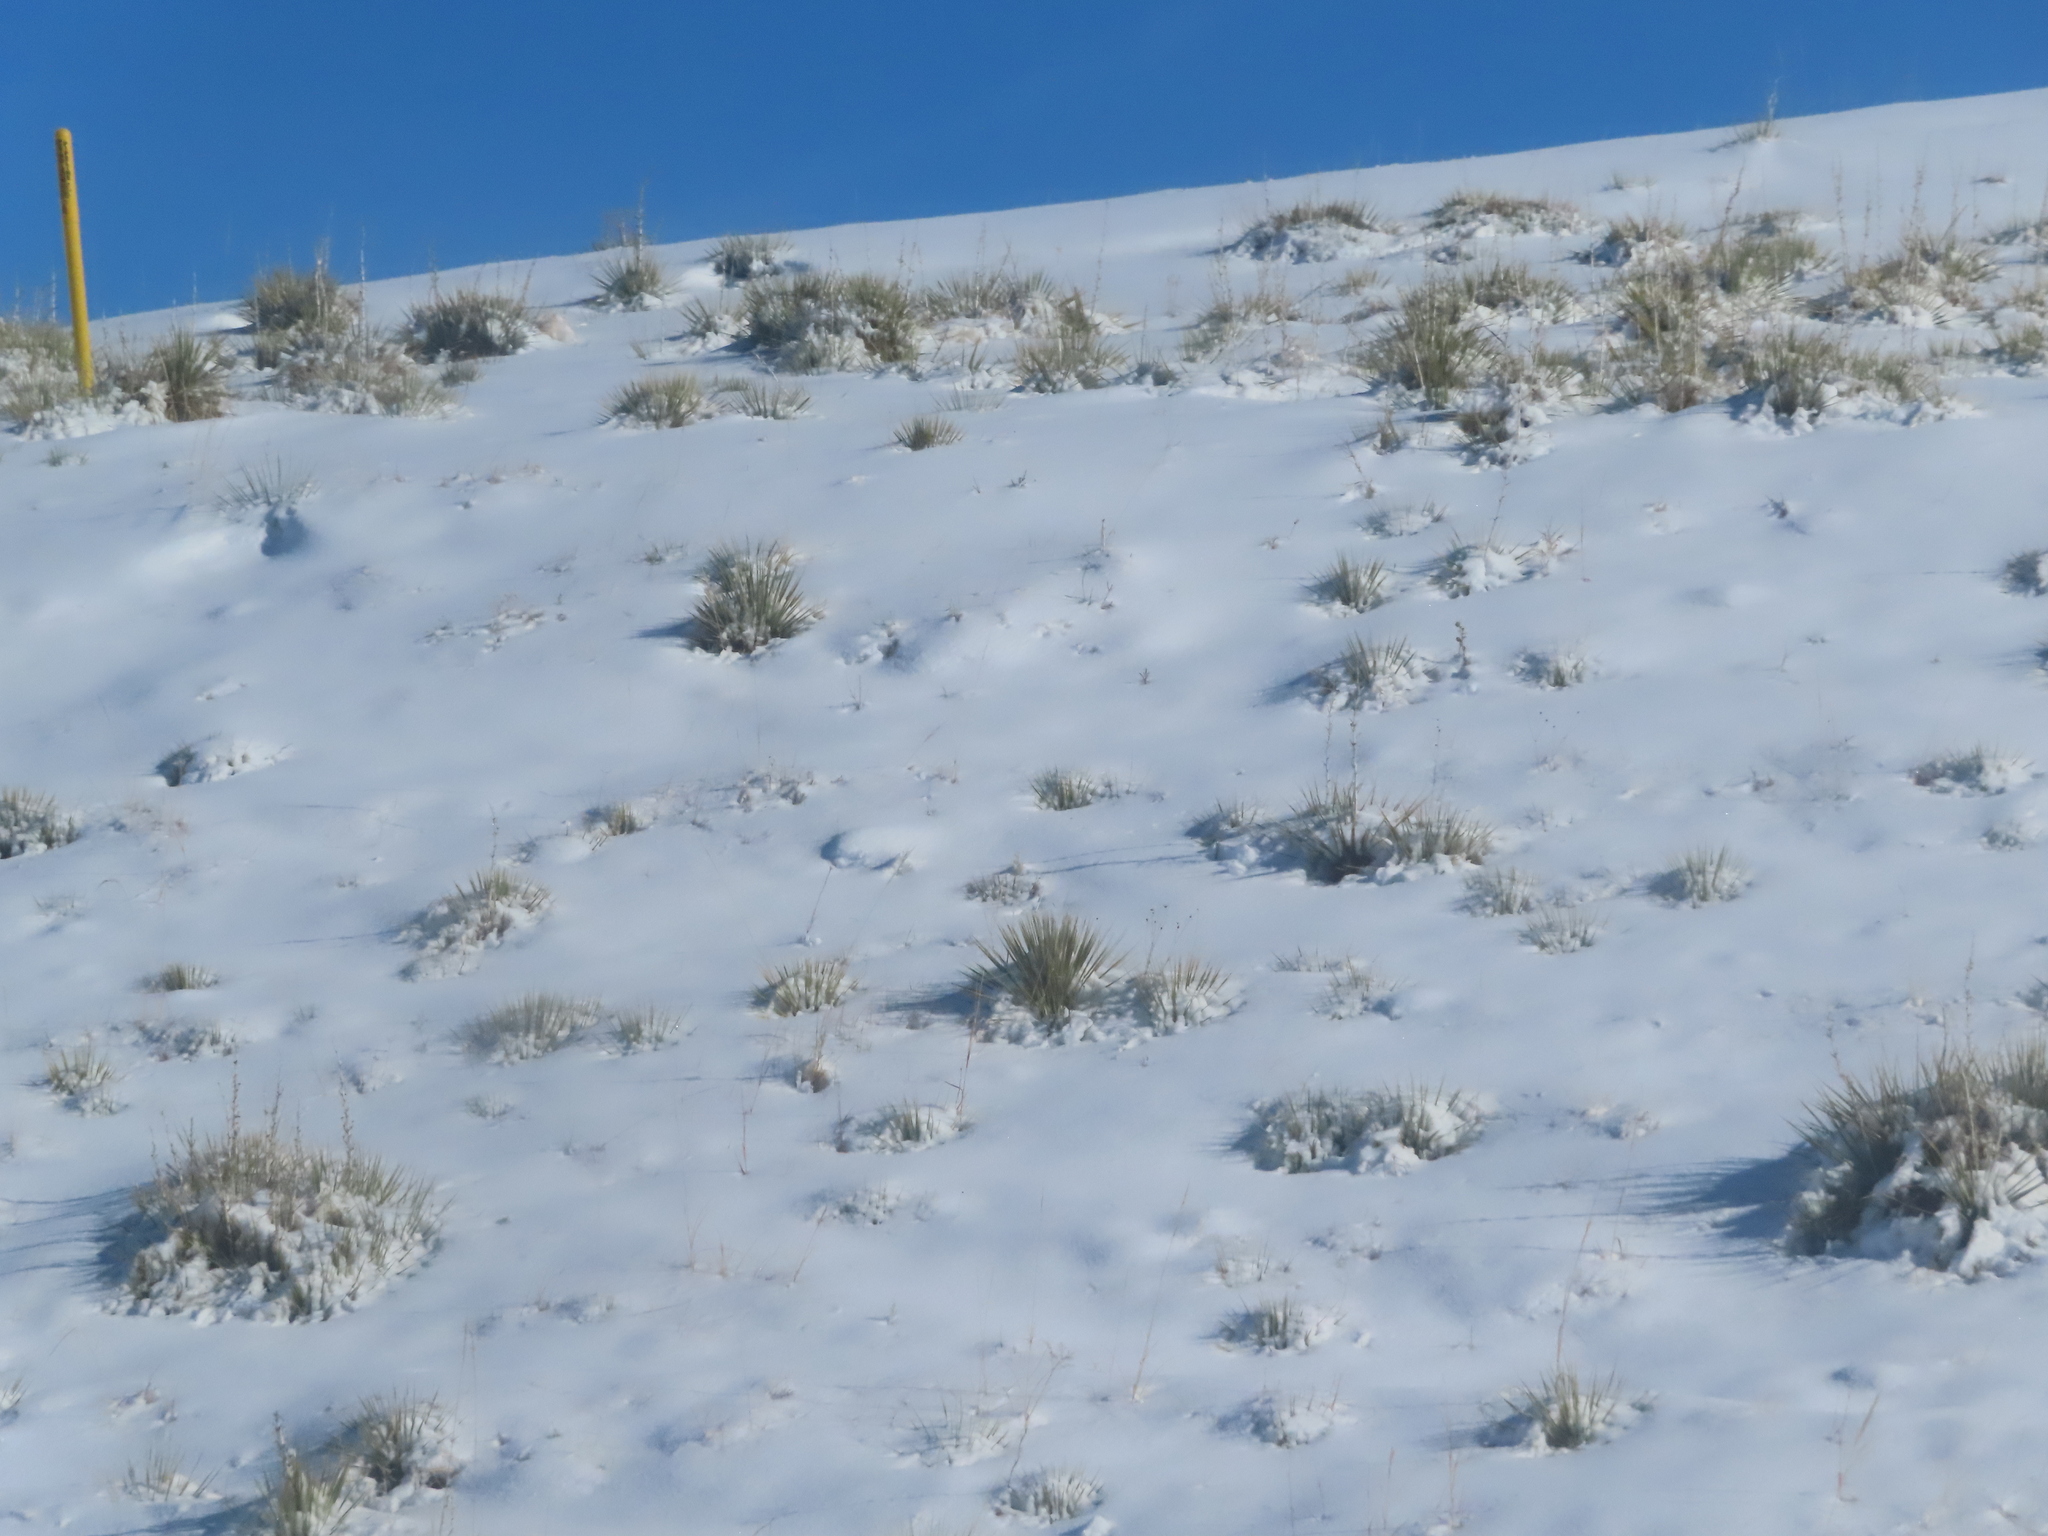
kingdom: Plantae
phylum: Tracheophyta
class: Liliopsida
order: Asparagales
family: Asparagaceae
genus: Yucca
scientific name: Yucca glauca
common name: Great plains yucca
